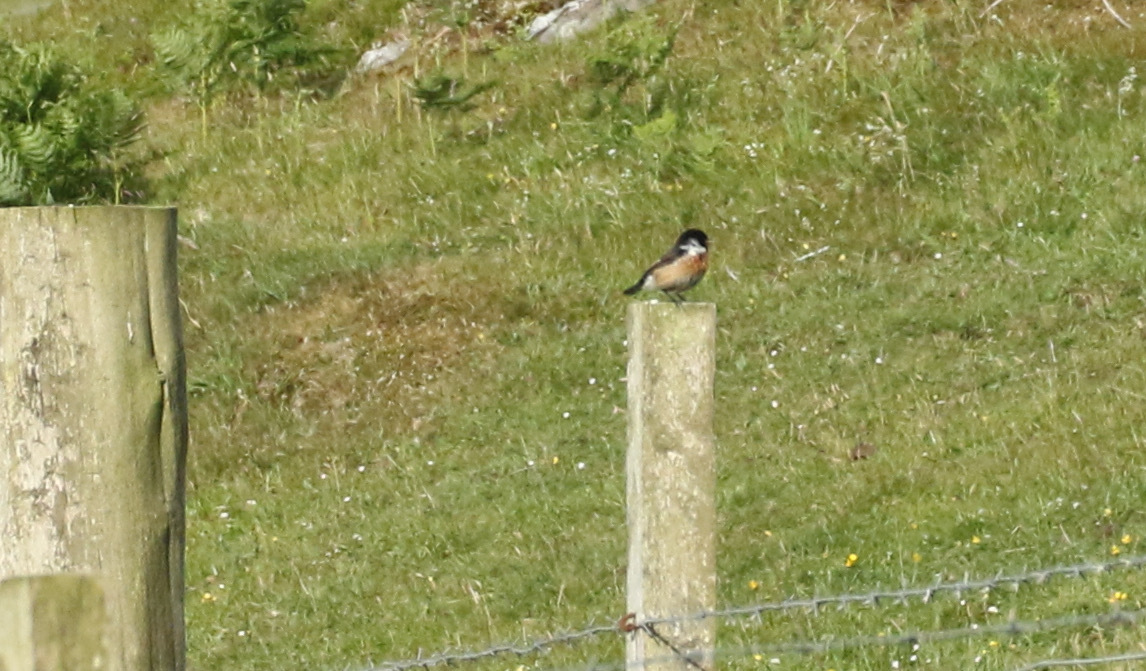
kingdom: Animalia
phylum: Chordata
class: Aves
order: Passeriformes
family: Muscicapidae
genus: Saxicola
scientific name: Saxicola rubicola
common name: European stonechat
